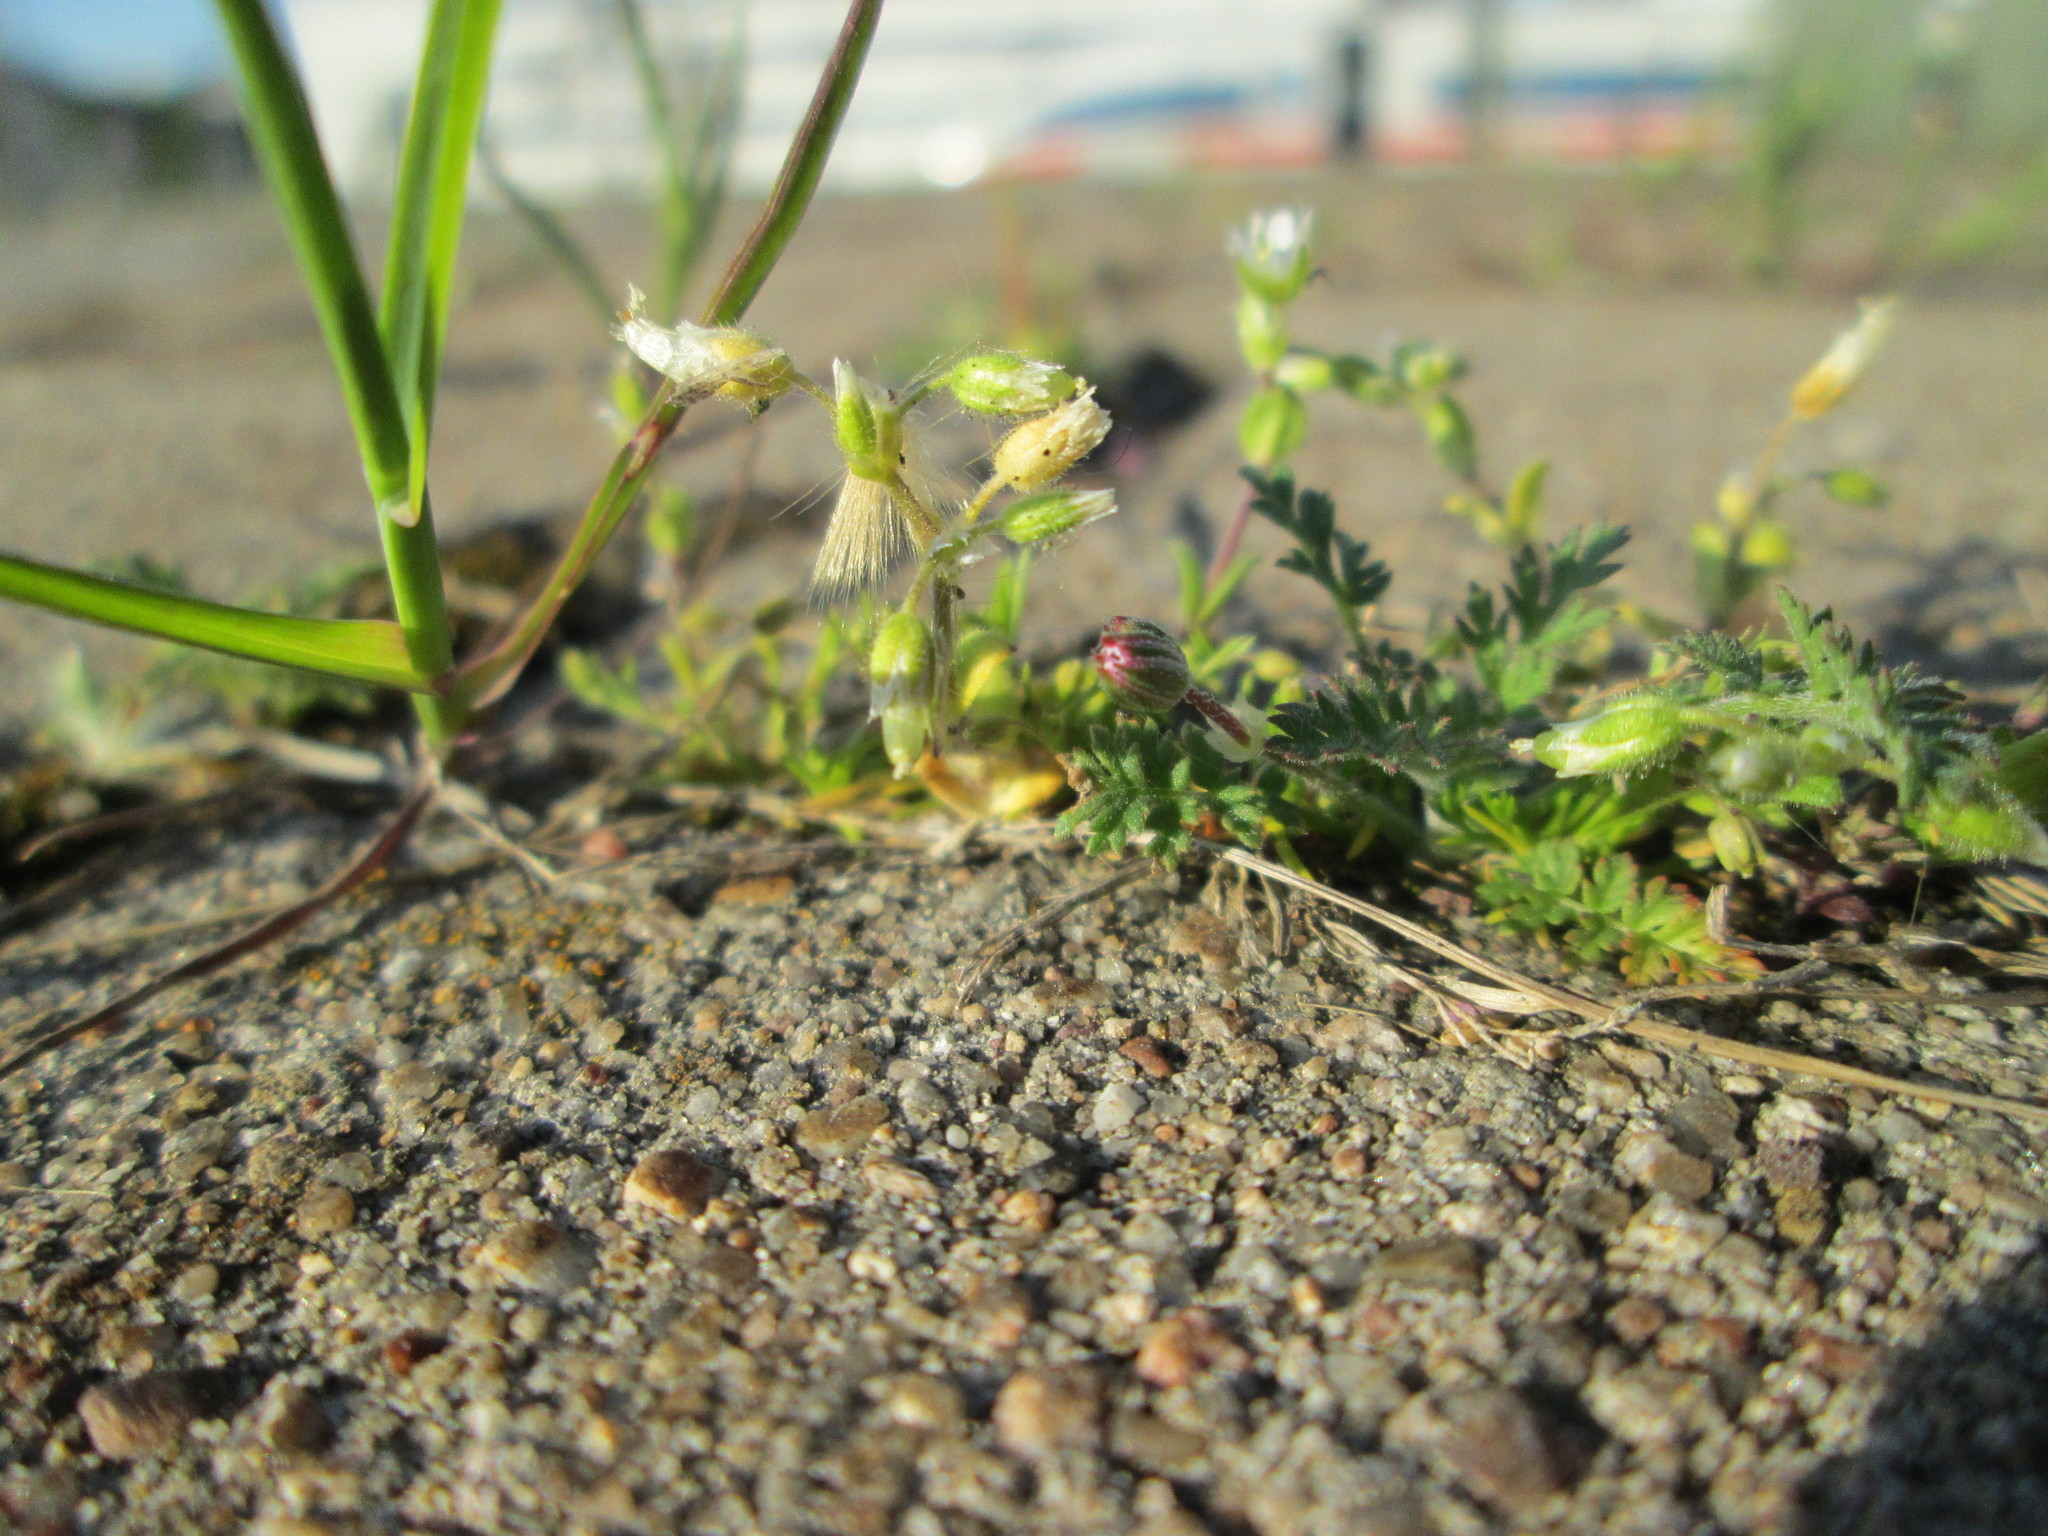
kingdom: Plantae
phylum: Tracheophyta
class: Magnoliopsida
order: Caryophyllales
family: Caryophyllaceae
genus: Cerastium
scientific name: Cerastium semidecandrum
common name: Little mouse-ear
